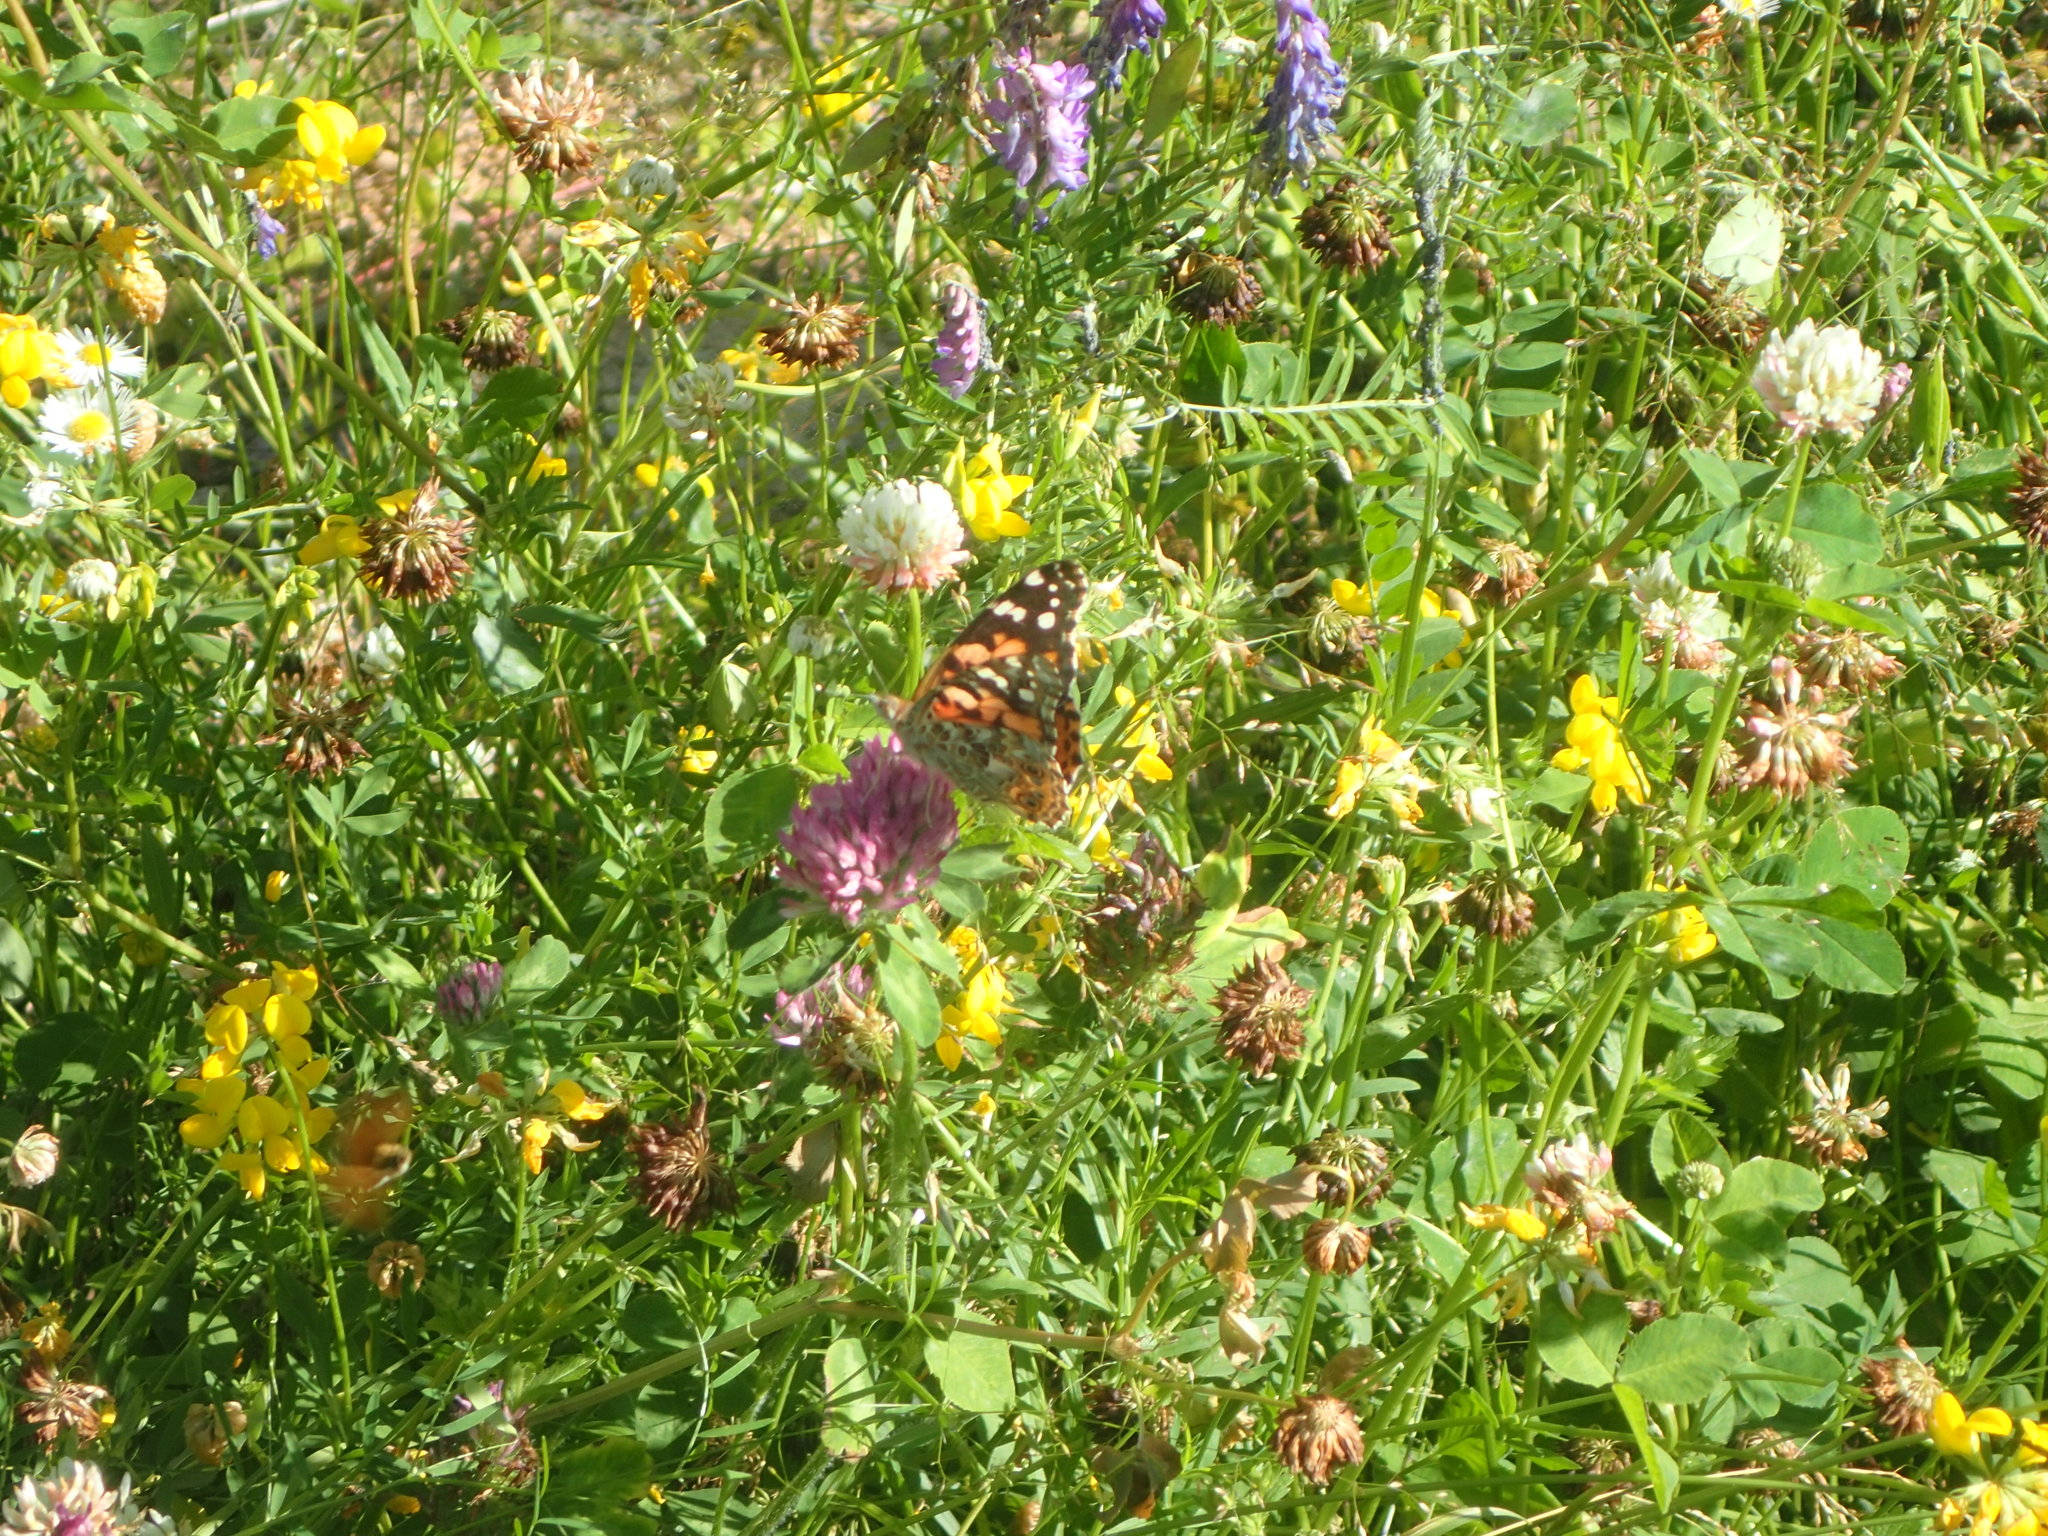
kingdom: Animalia
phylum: Arthropoda
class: Insecta
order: Lepidoptera
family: Nymphalidae
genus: Vanessa
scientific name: Vanessa cardui
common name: Painted lady
